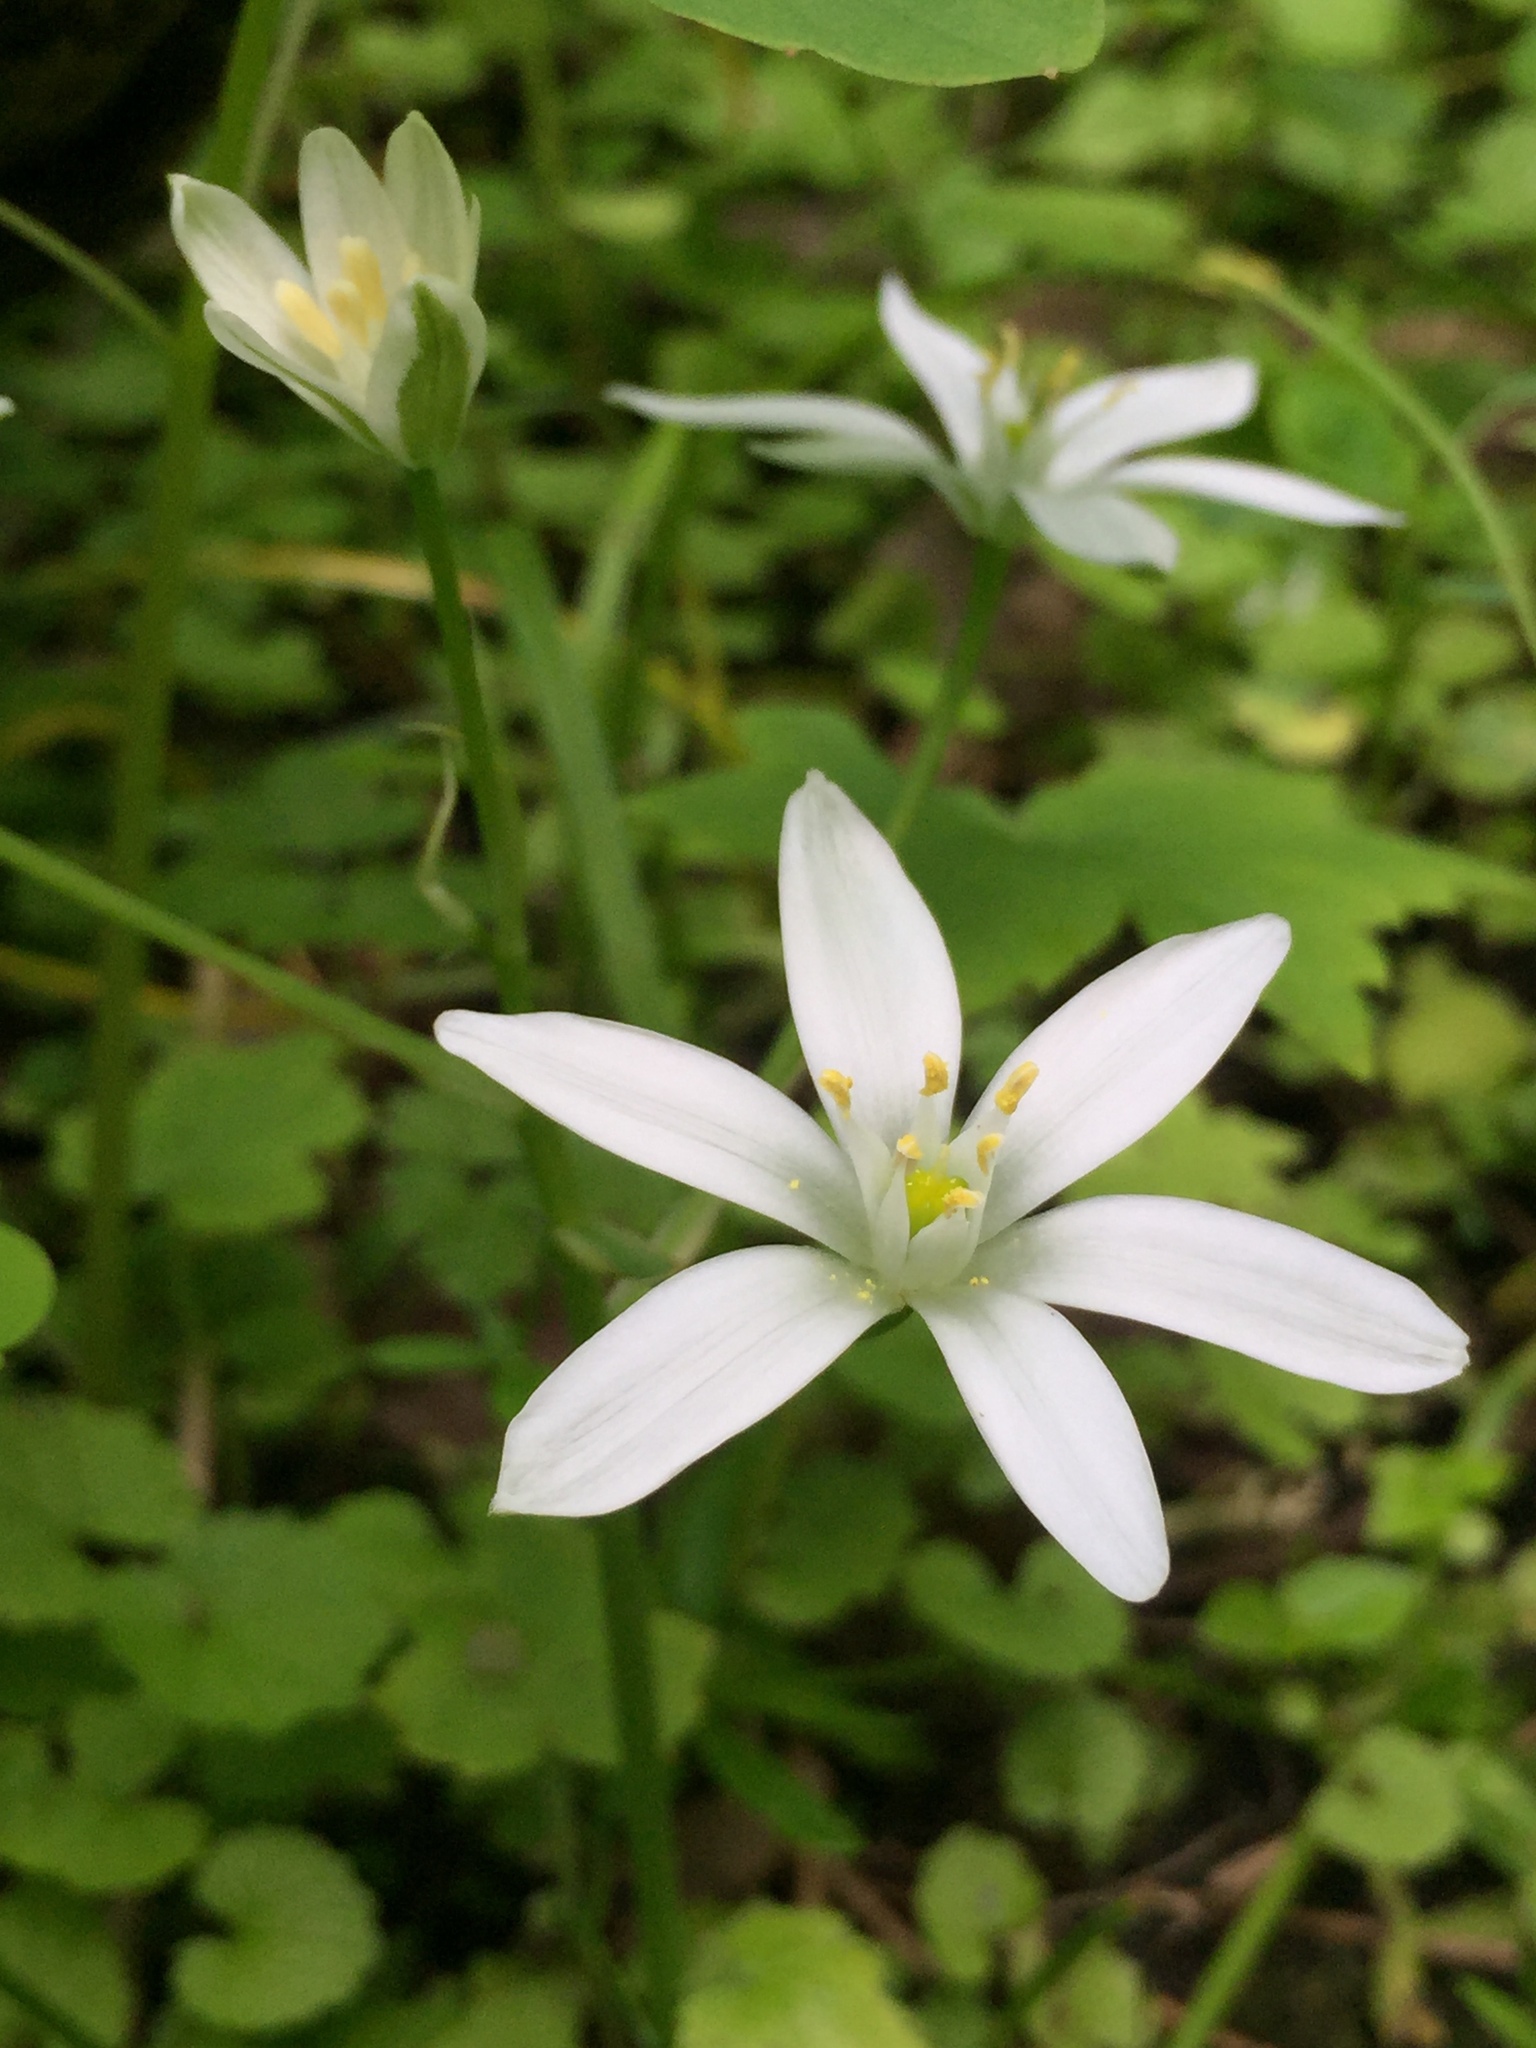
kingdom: Plantae
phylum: Tracheophyta
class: Liliopsida
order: Asparagales
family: Asparagaceae
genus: Ornithogalum
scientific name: Ornithogalum umbellatum
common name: Garden star-of-bethlehem
